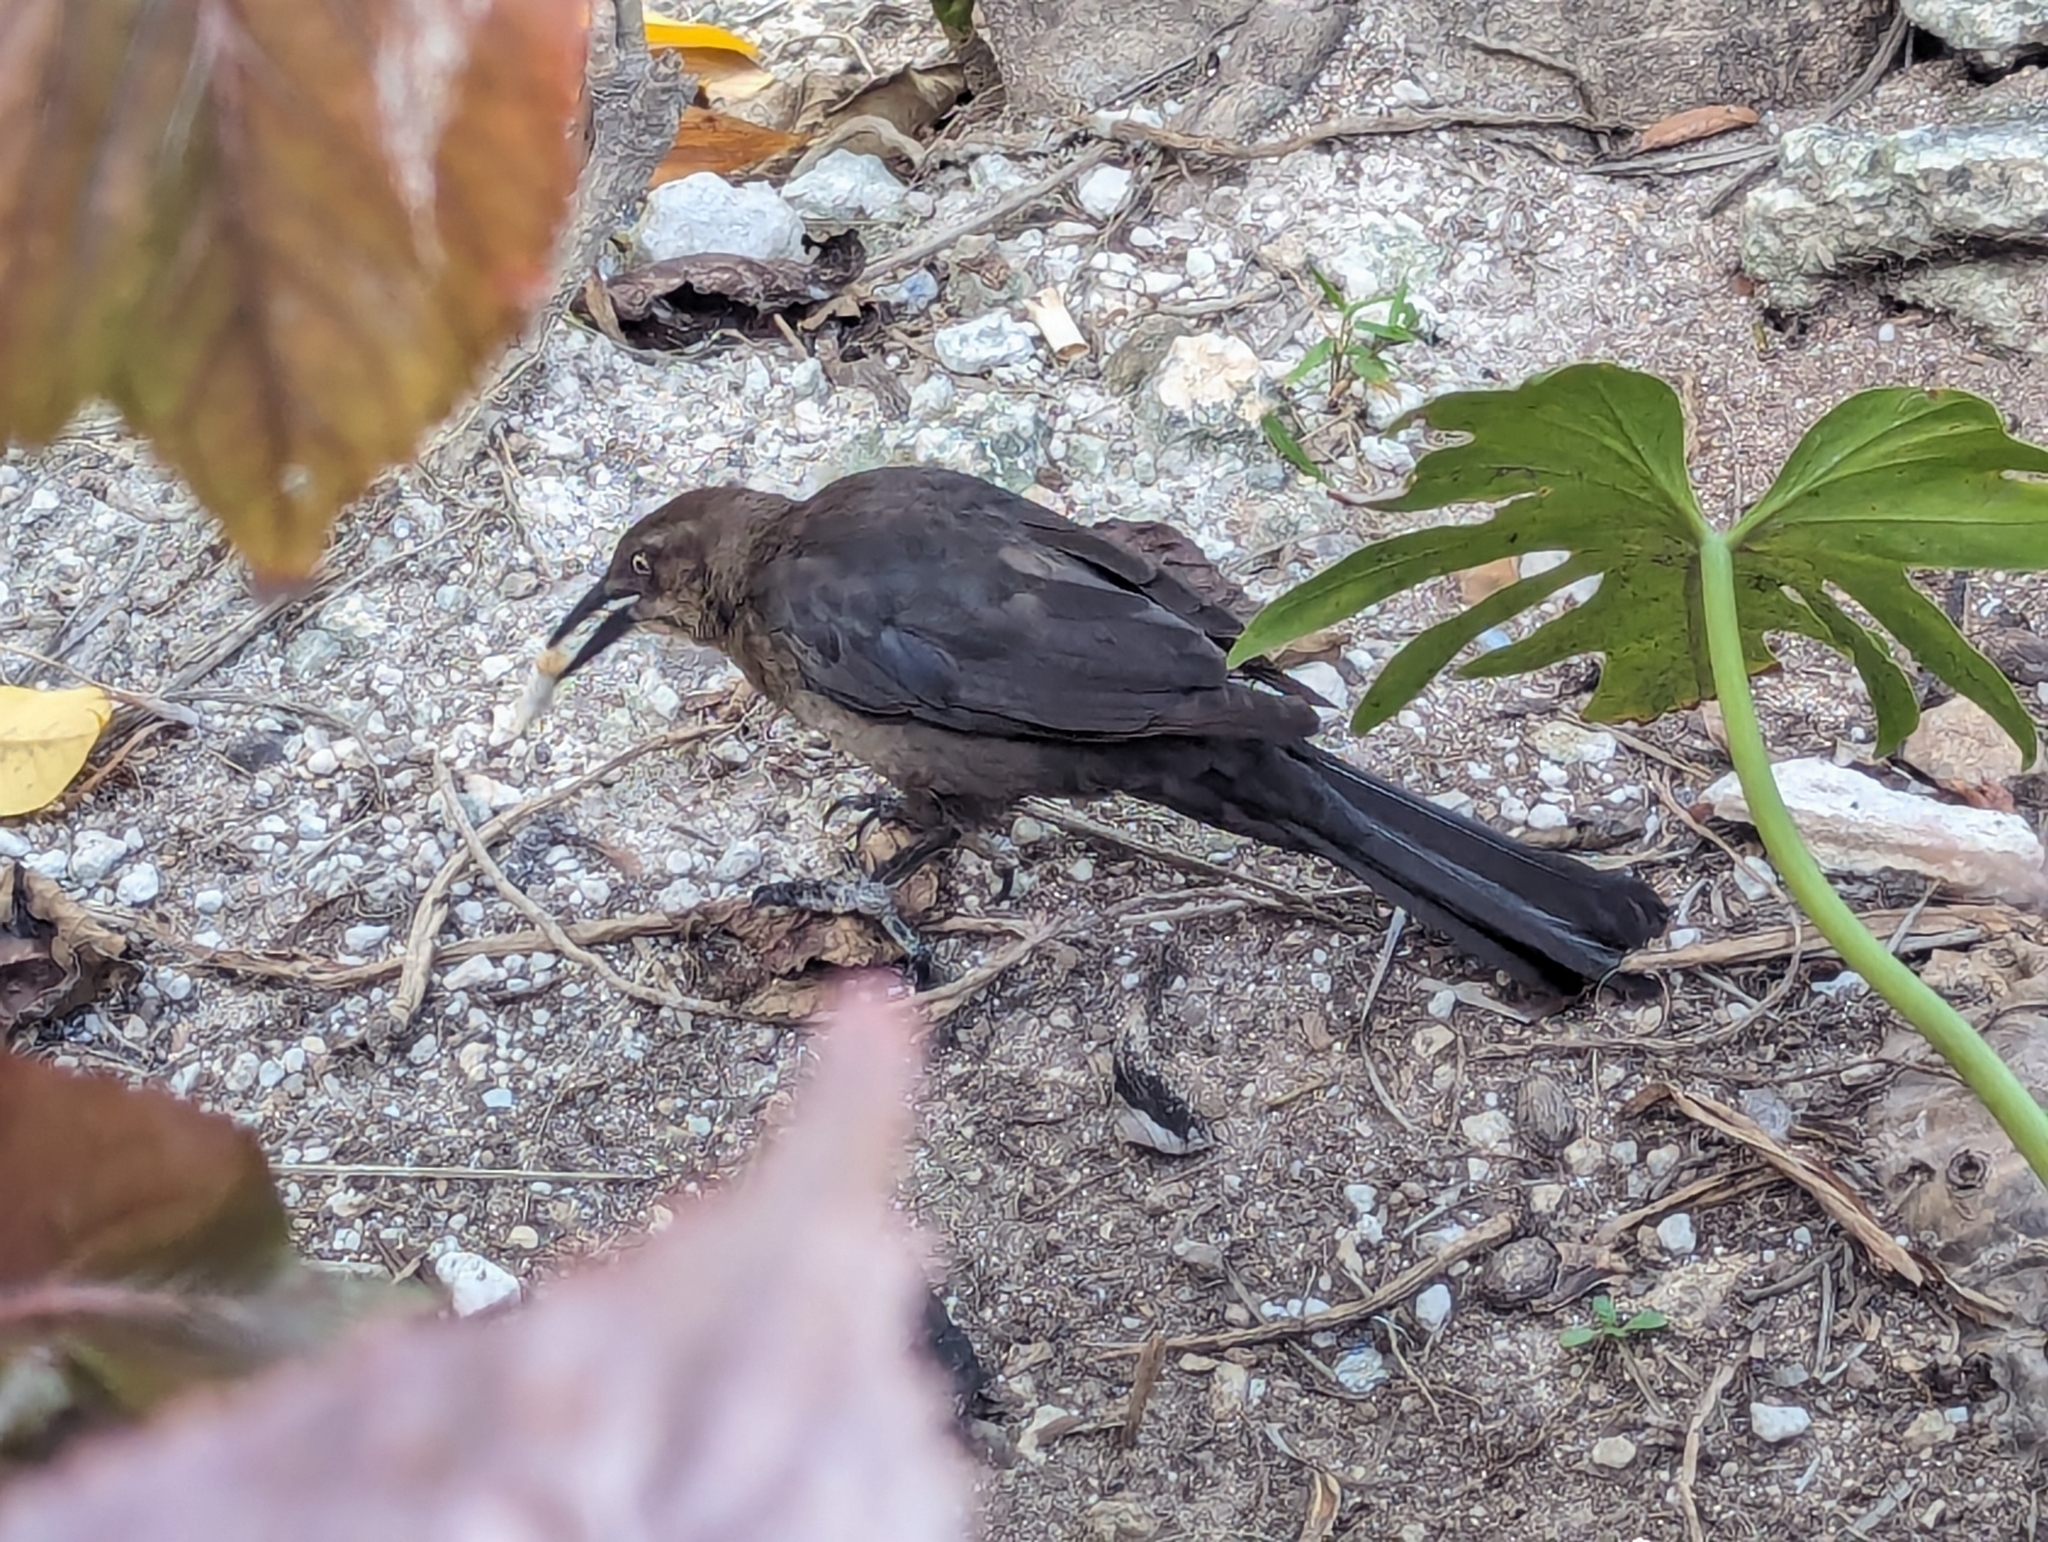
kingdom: Animalia
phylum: Chordata
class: Aves
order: Passeriformes
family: Icteridae
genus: Quiscalus
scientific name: Quiscalus mexicanus
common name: Great-tailed grackle
